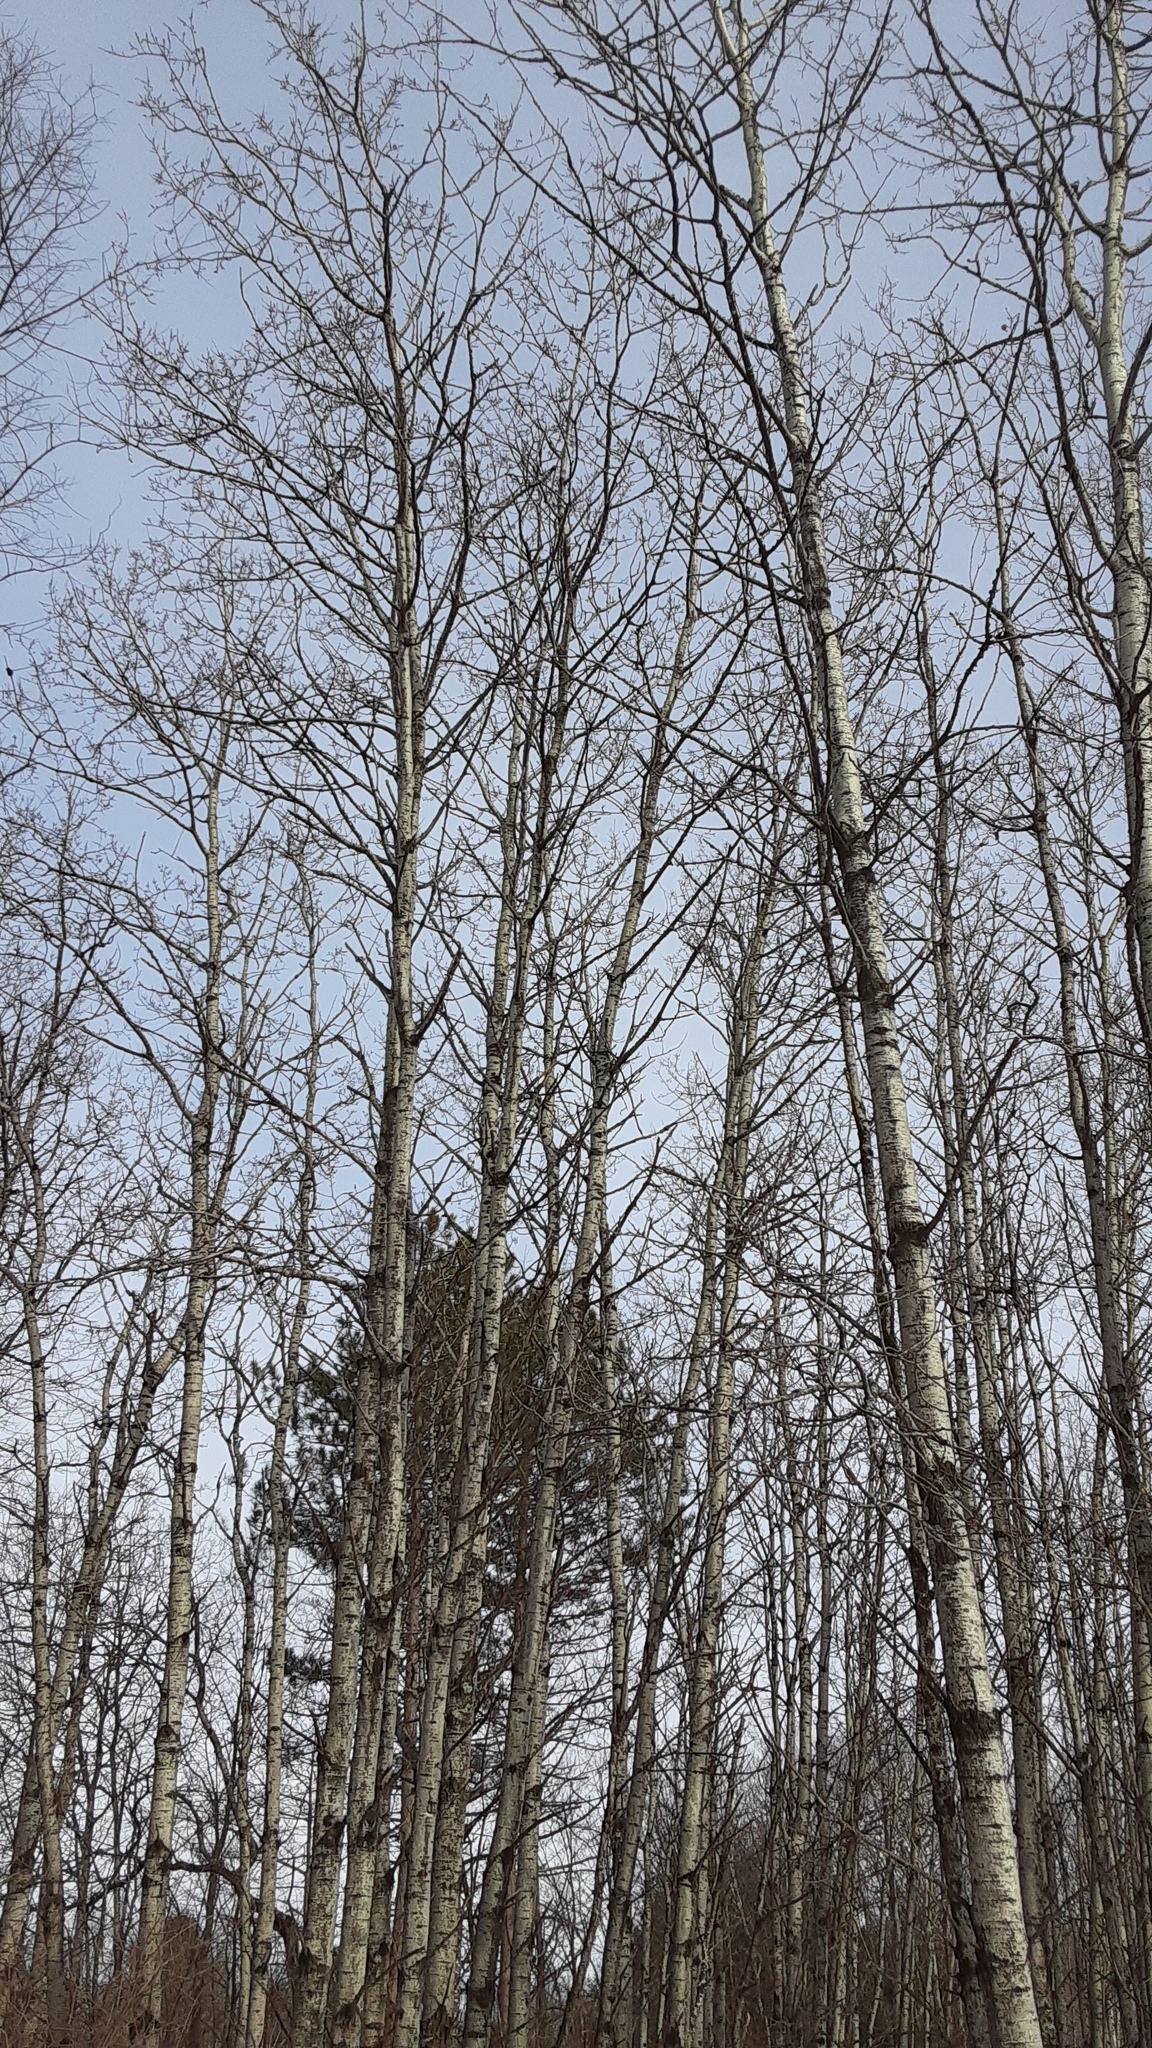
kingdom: Plantae
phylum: Tracheophyta
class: Magnoliopsida
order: Malpighiales
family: Salicaceae
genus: Populus
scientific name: Populus tremuloides
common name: Quaking aspen
